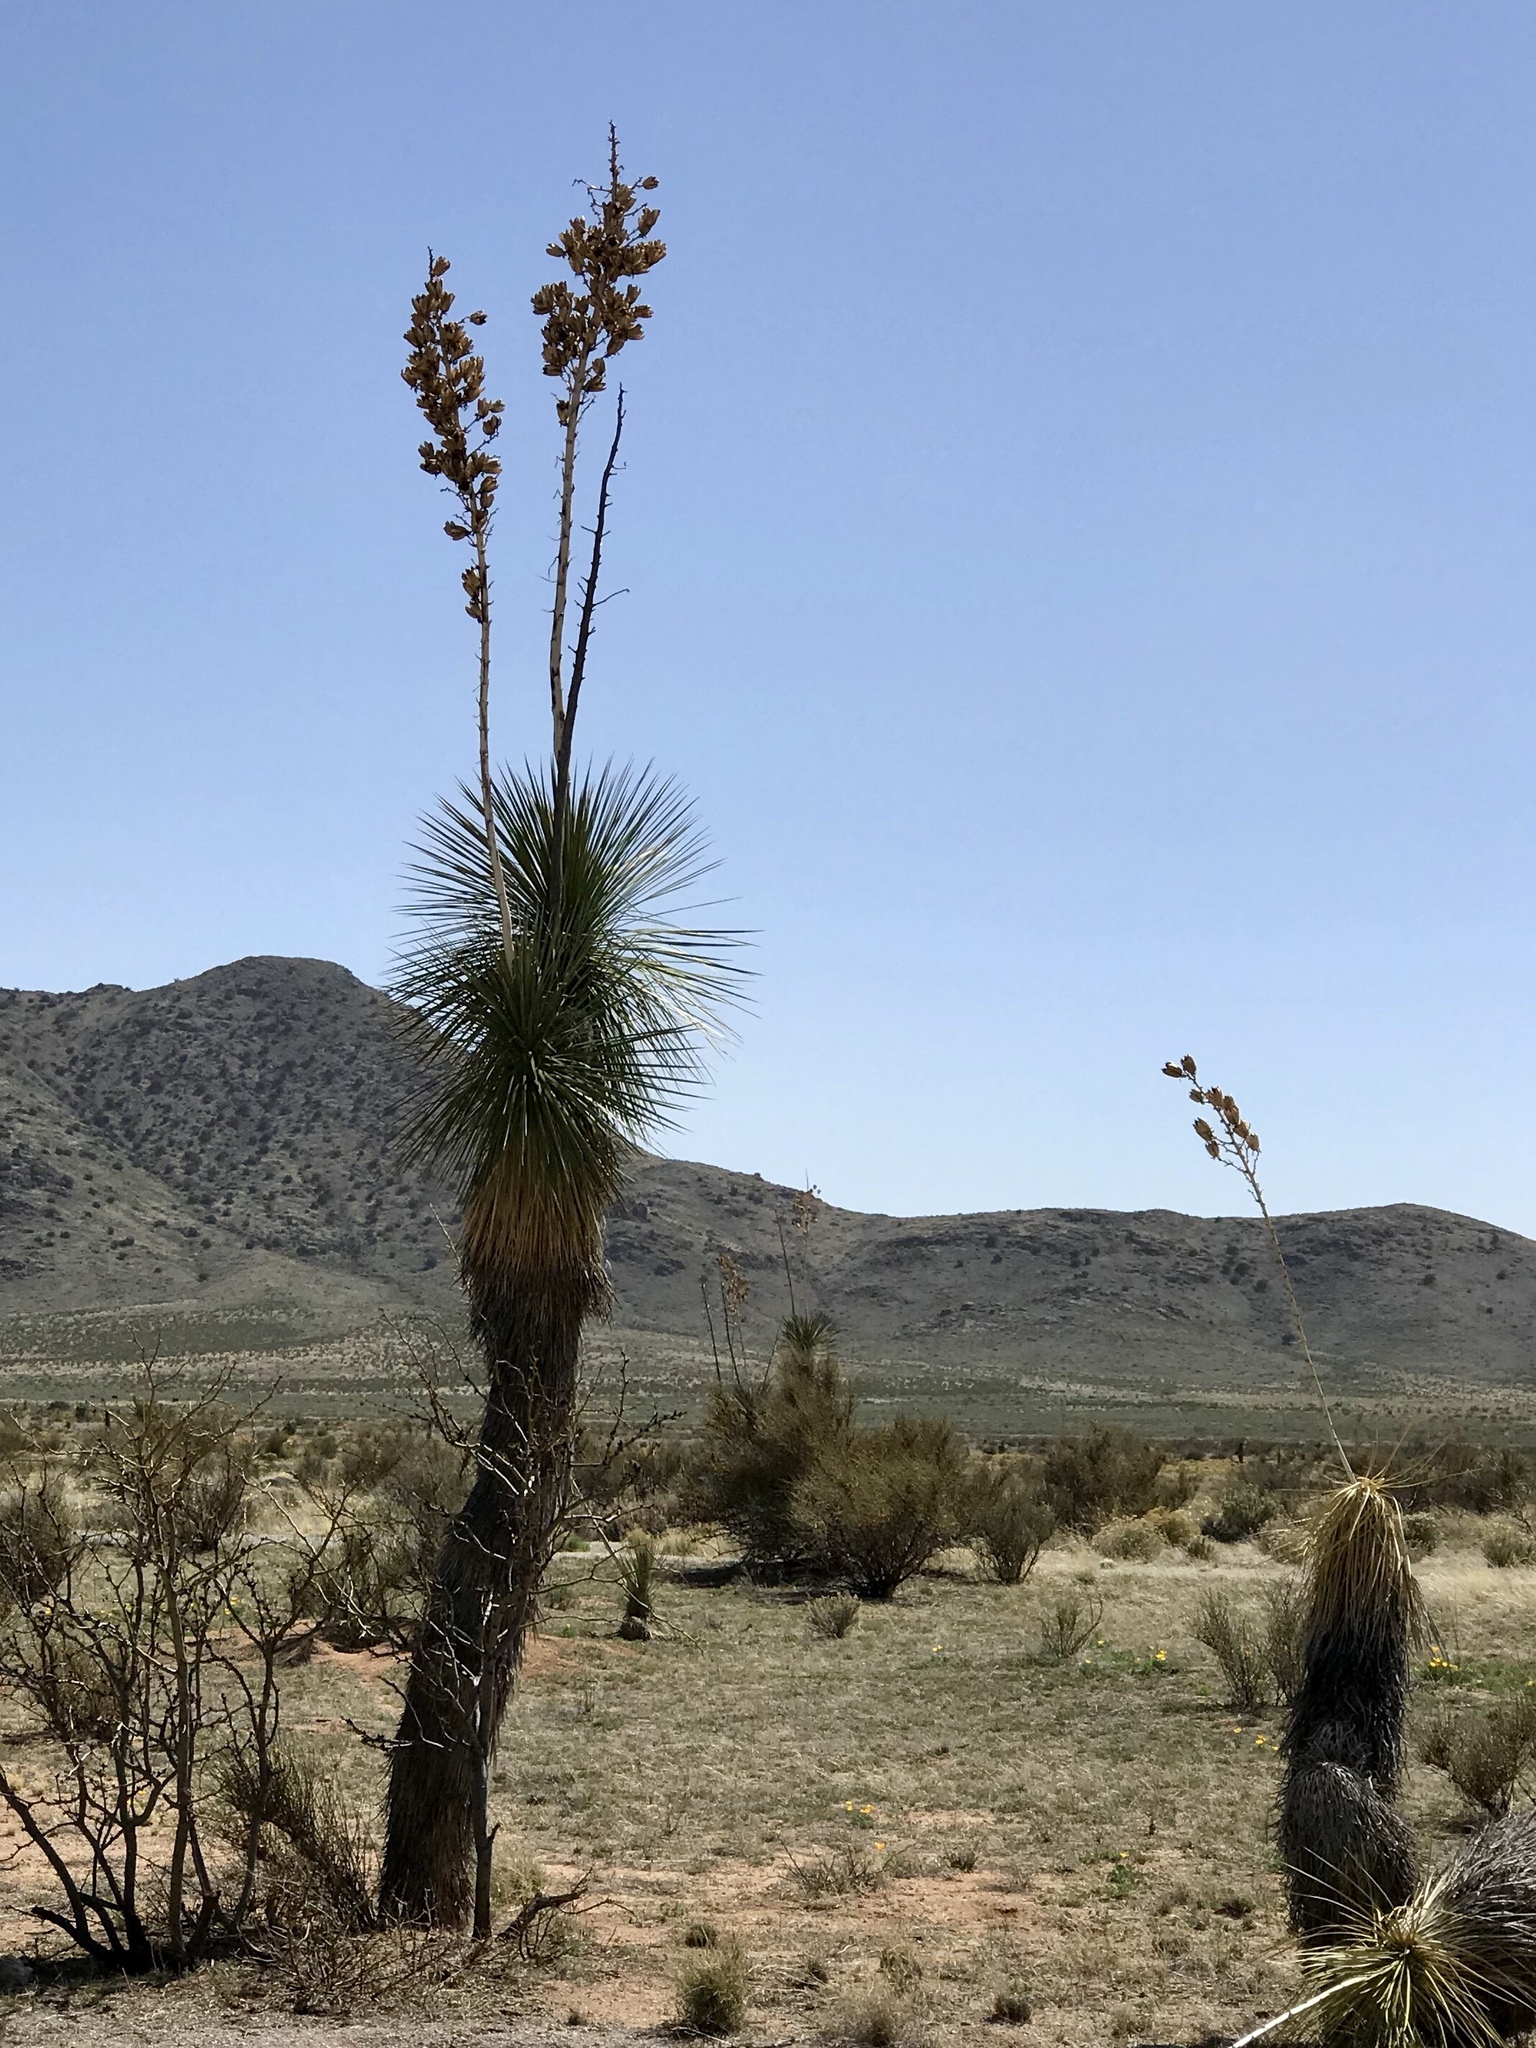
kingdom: Plantae
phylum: Tracheophyta
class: Liliopsida
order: Asparagales
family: Asparagaceae
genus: Yucca
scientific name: Yucca elata
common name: Palmella
